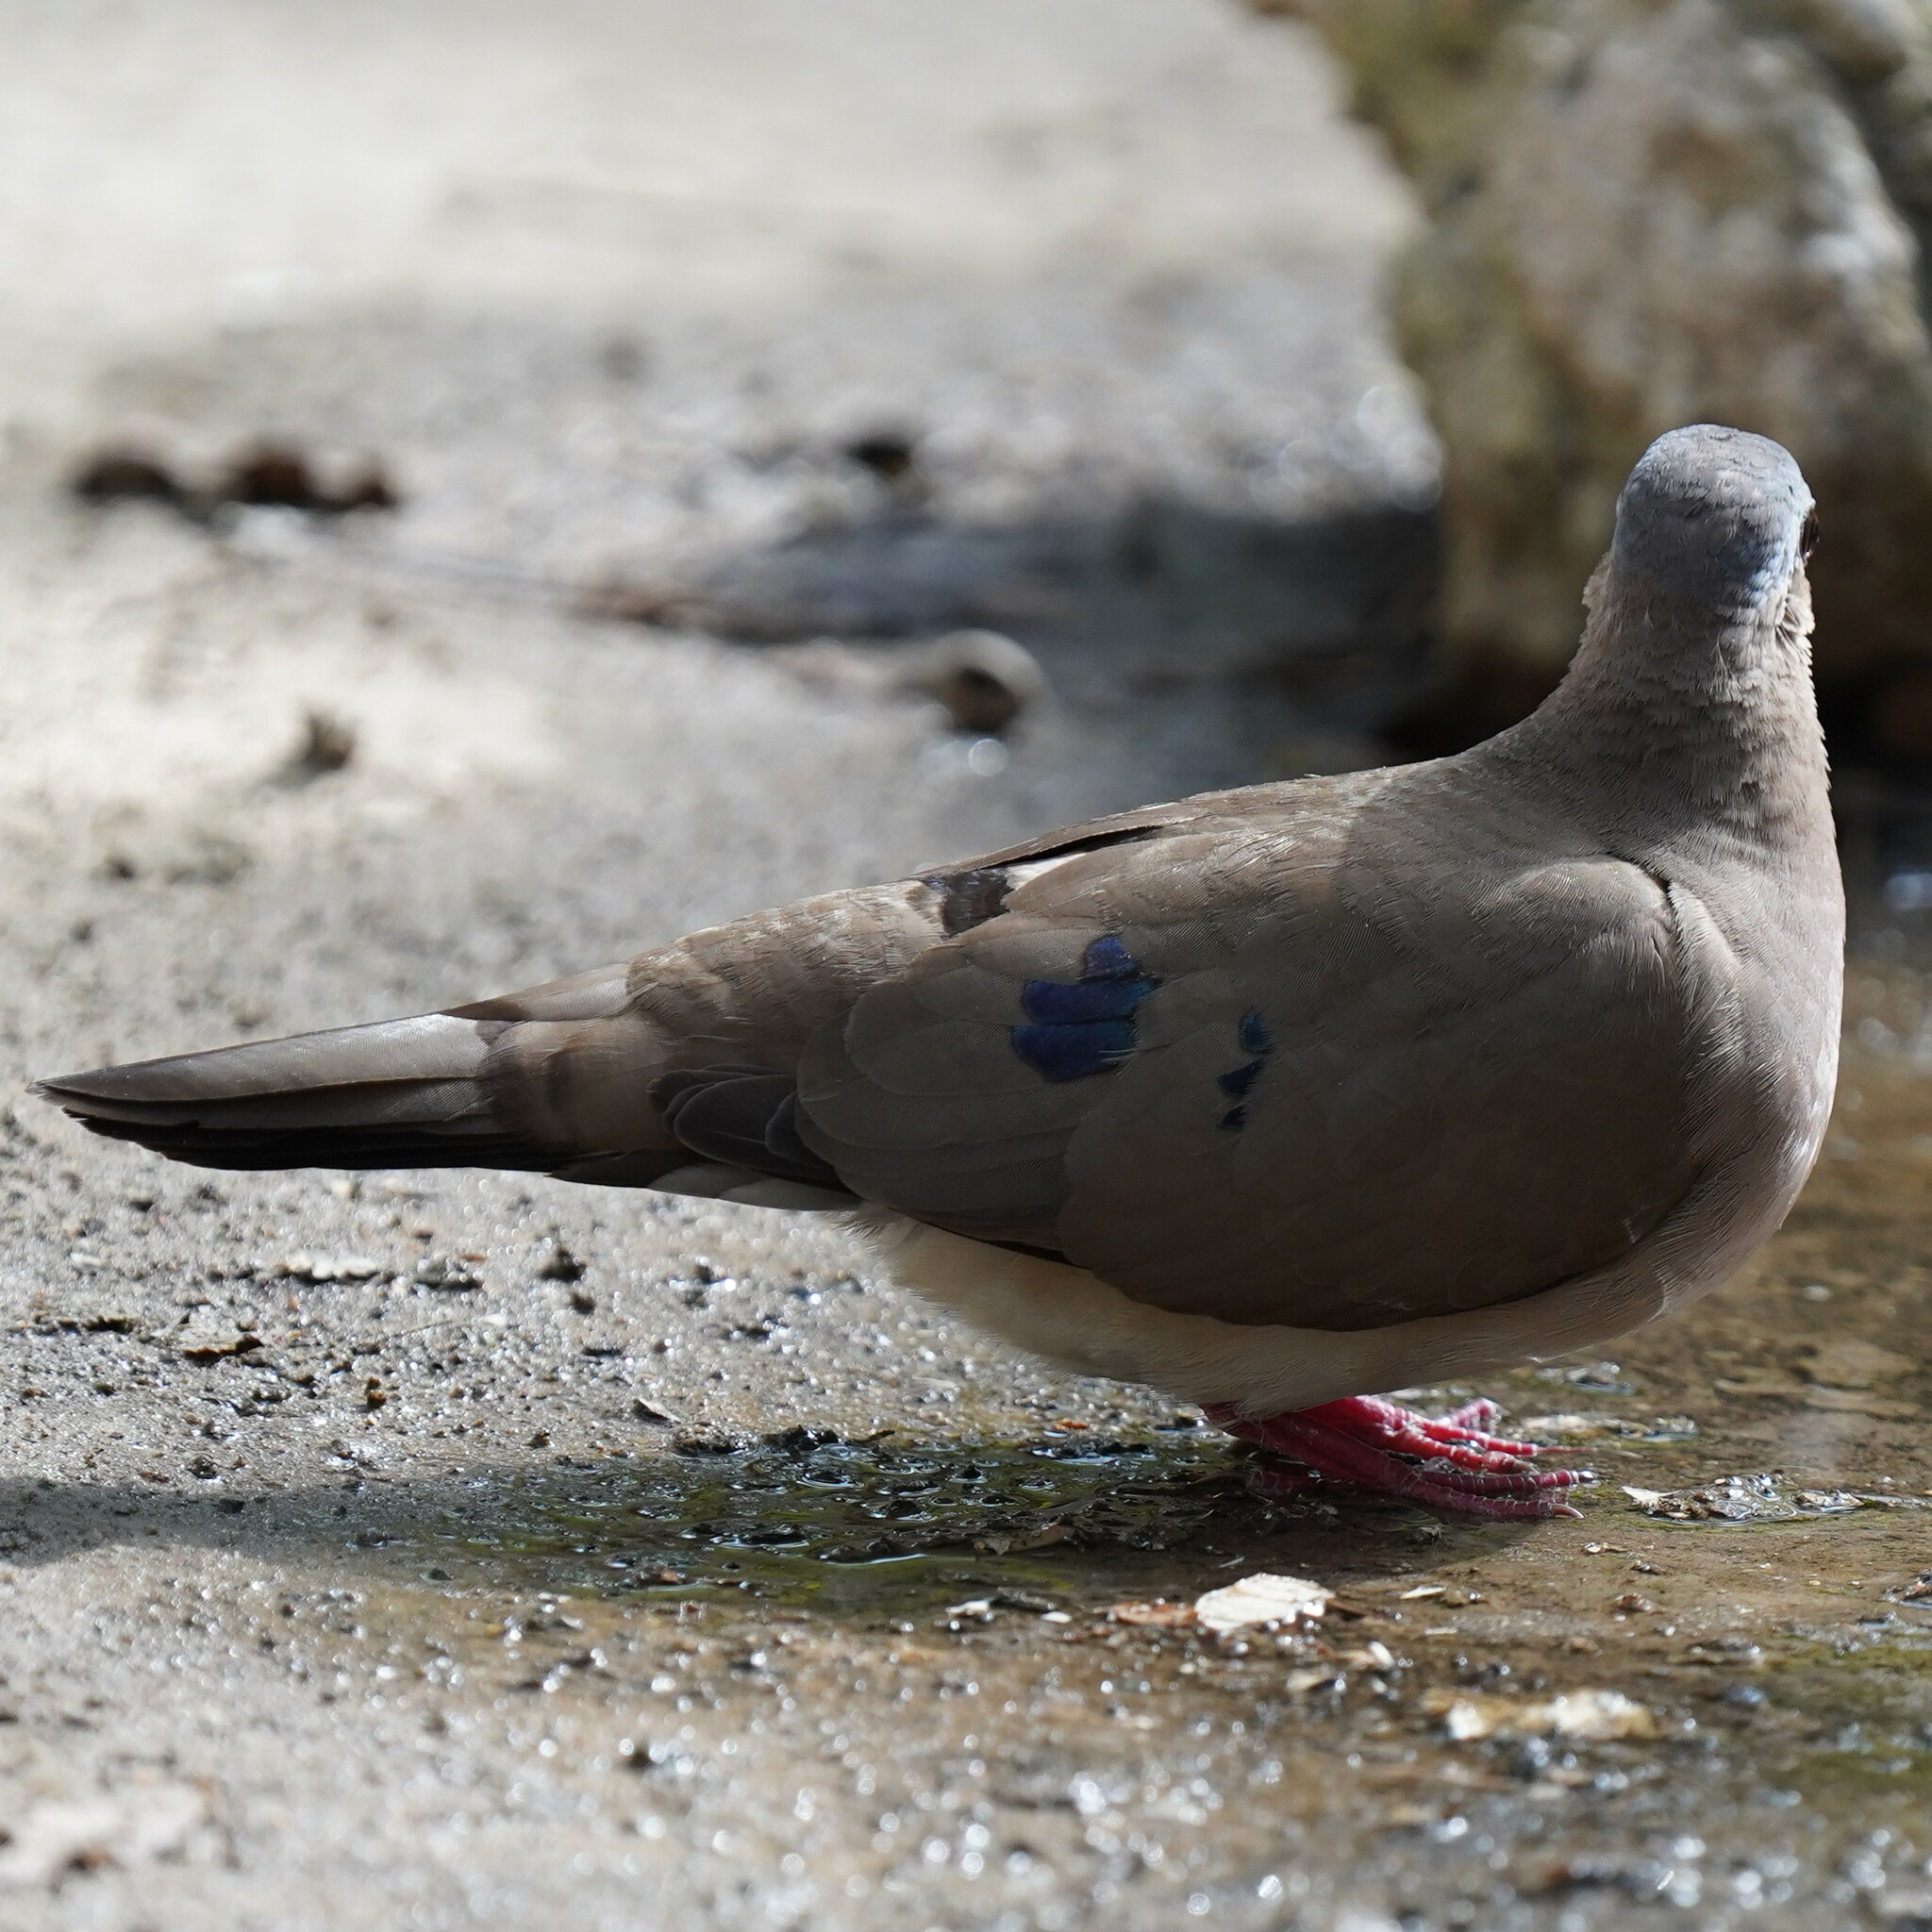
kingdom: Animalia
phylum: Chordata
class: Aves
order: Columbiformes
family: Columbidae
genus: Turtur
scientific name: Turtur afer
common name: Blue-spotted wood dove
